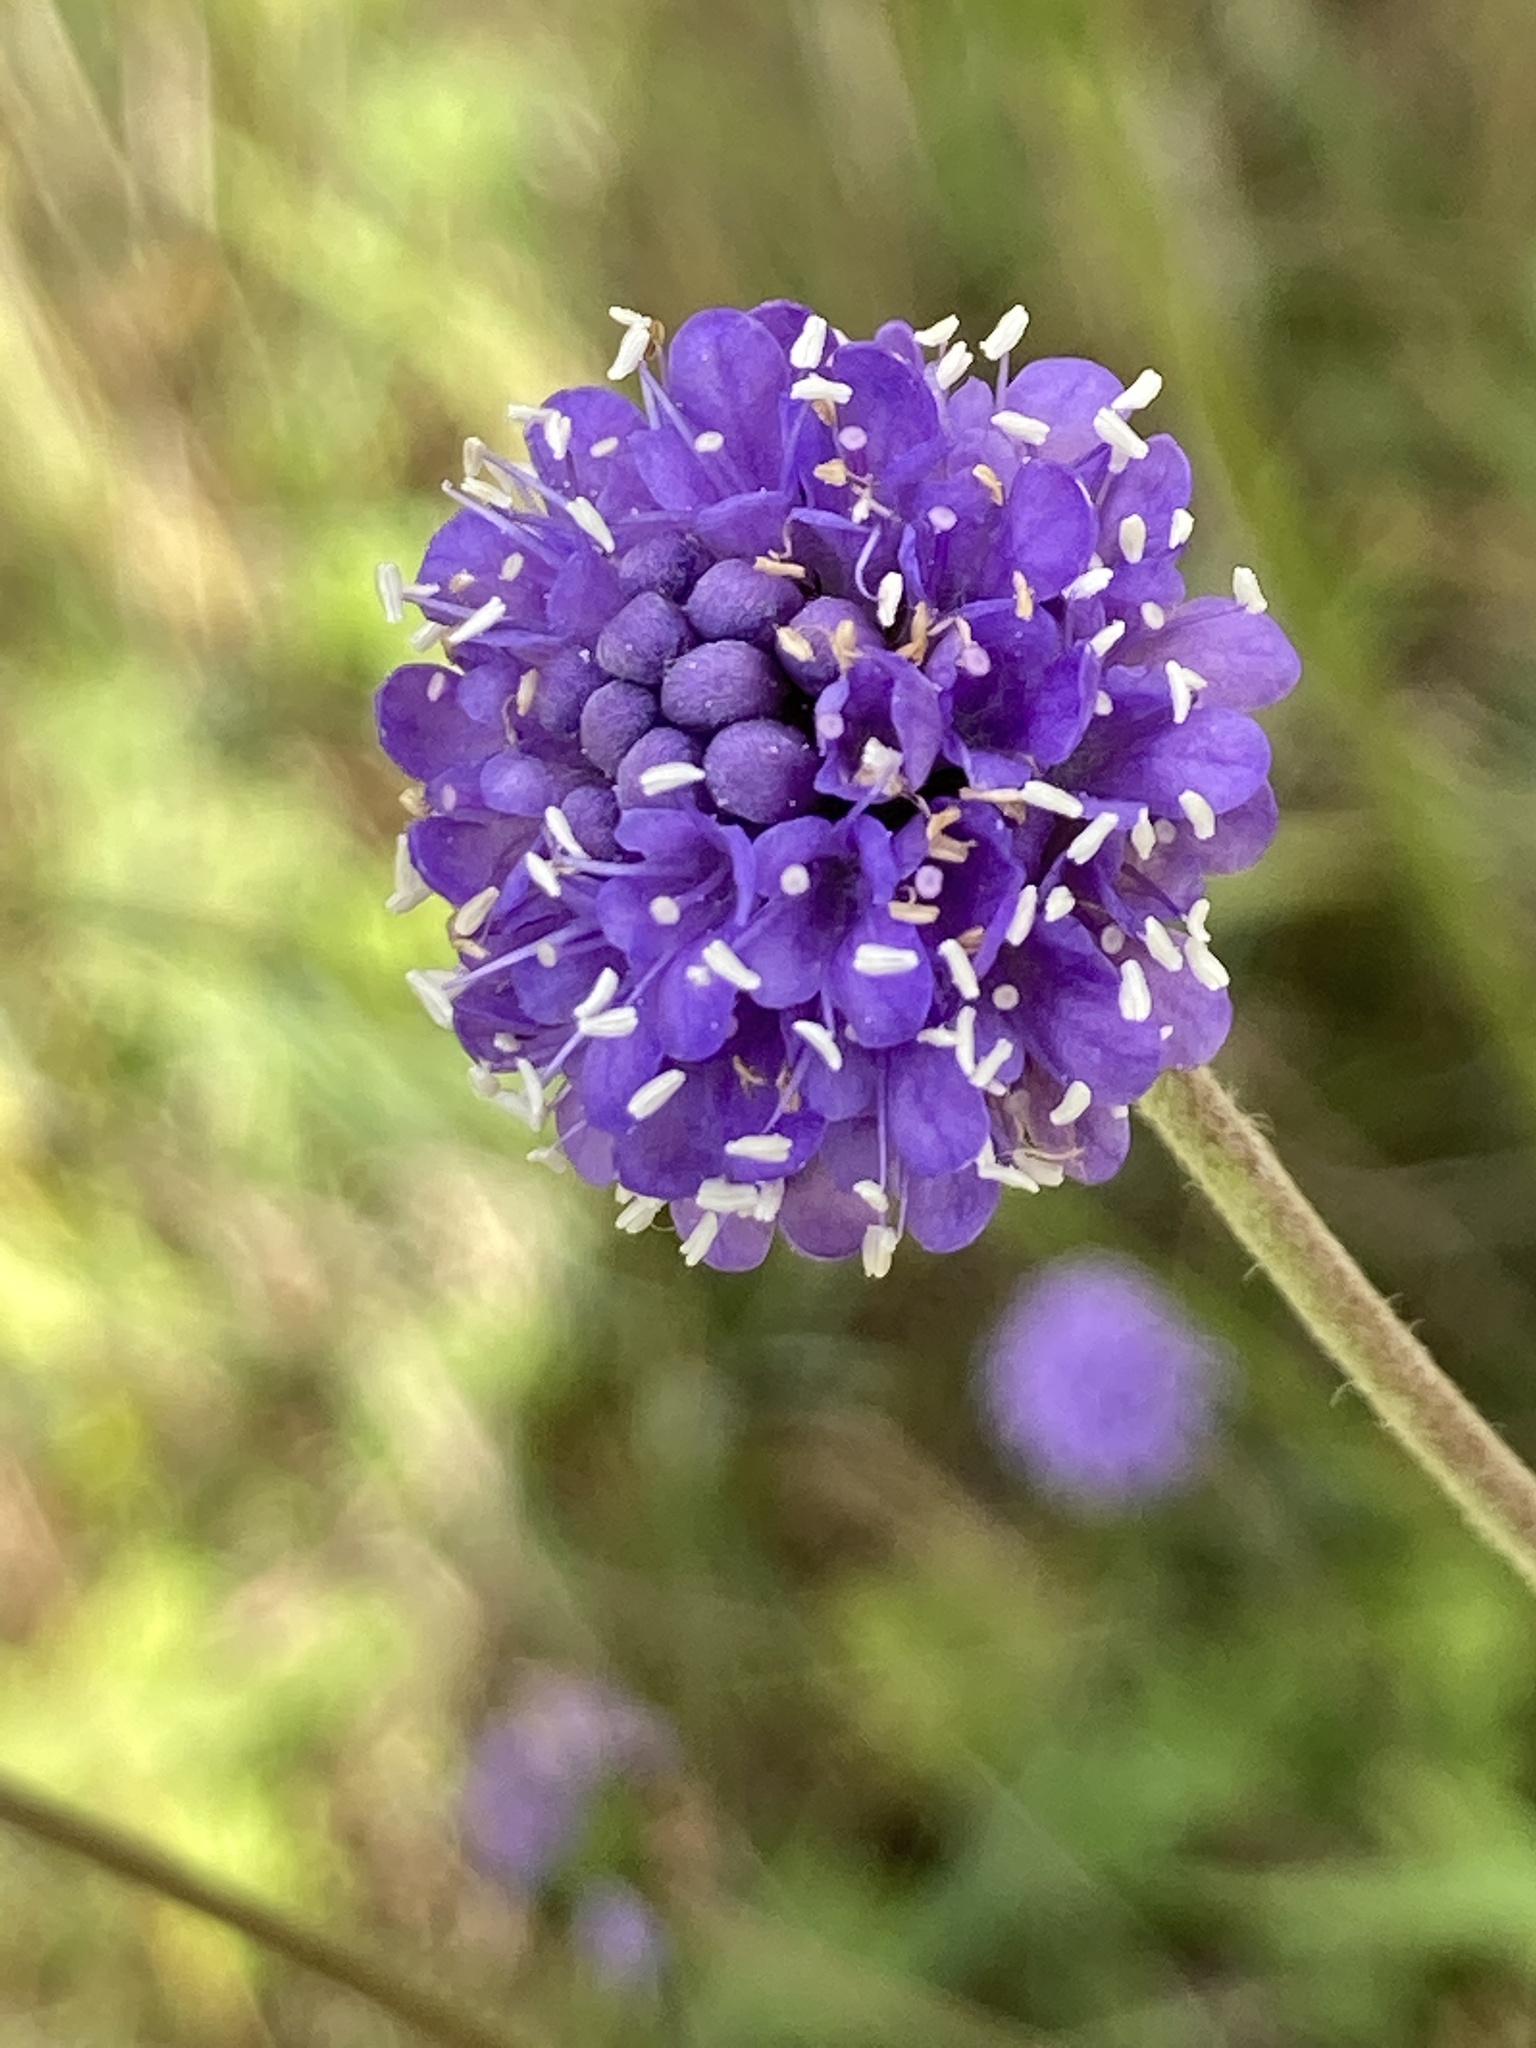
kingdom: Plantae
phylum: Tracheophyta
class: Magnoliopsida
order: Dipsacales
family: Caprifoliaceae
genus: Succisa
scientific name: Succisa pratensis
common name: Devil's-bit
